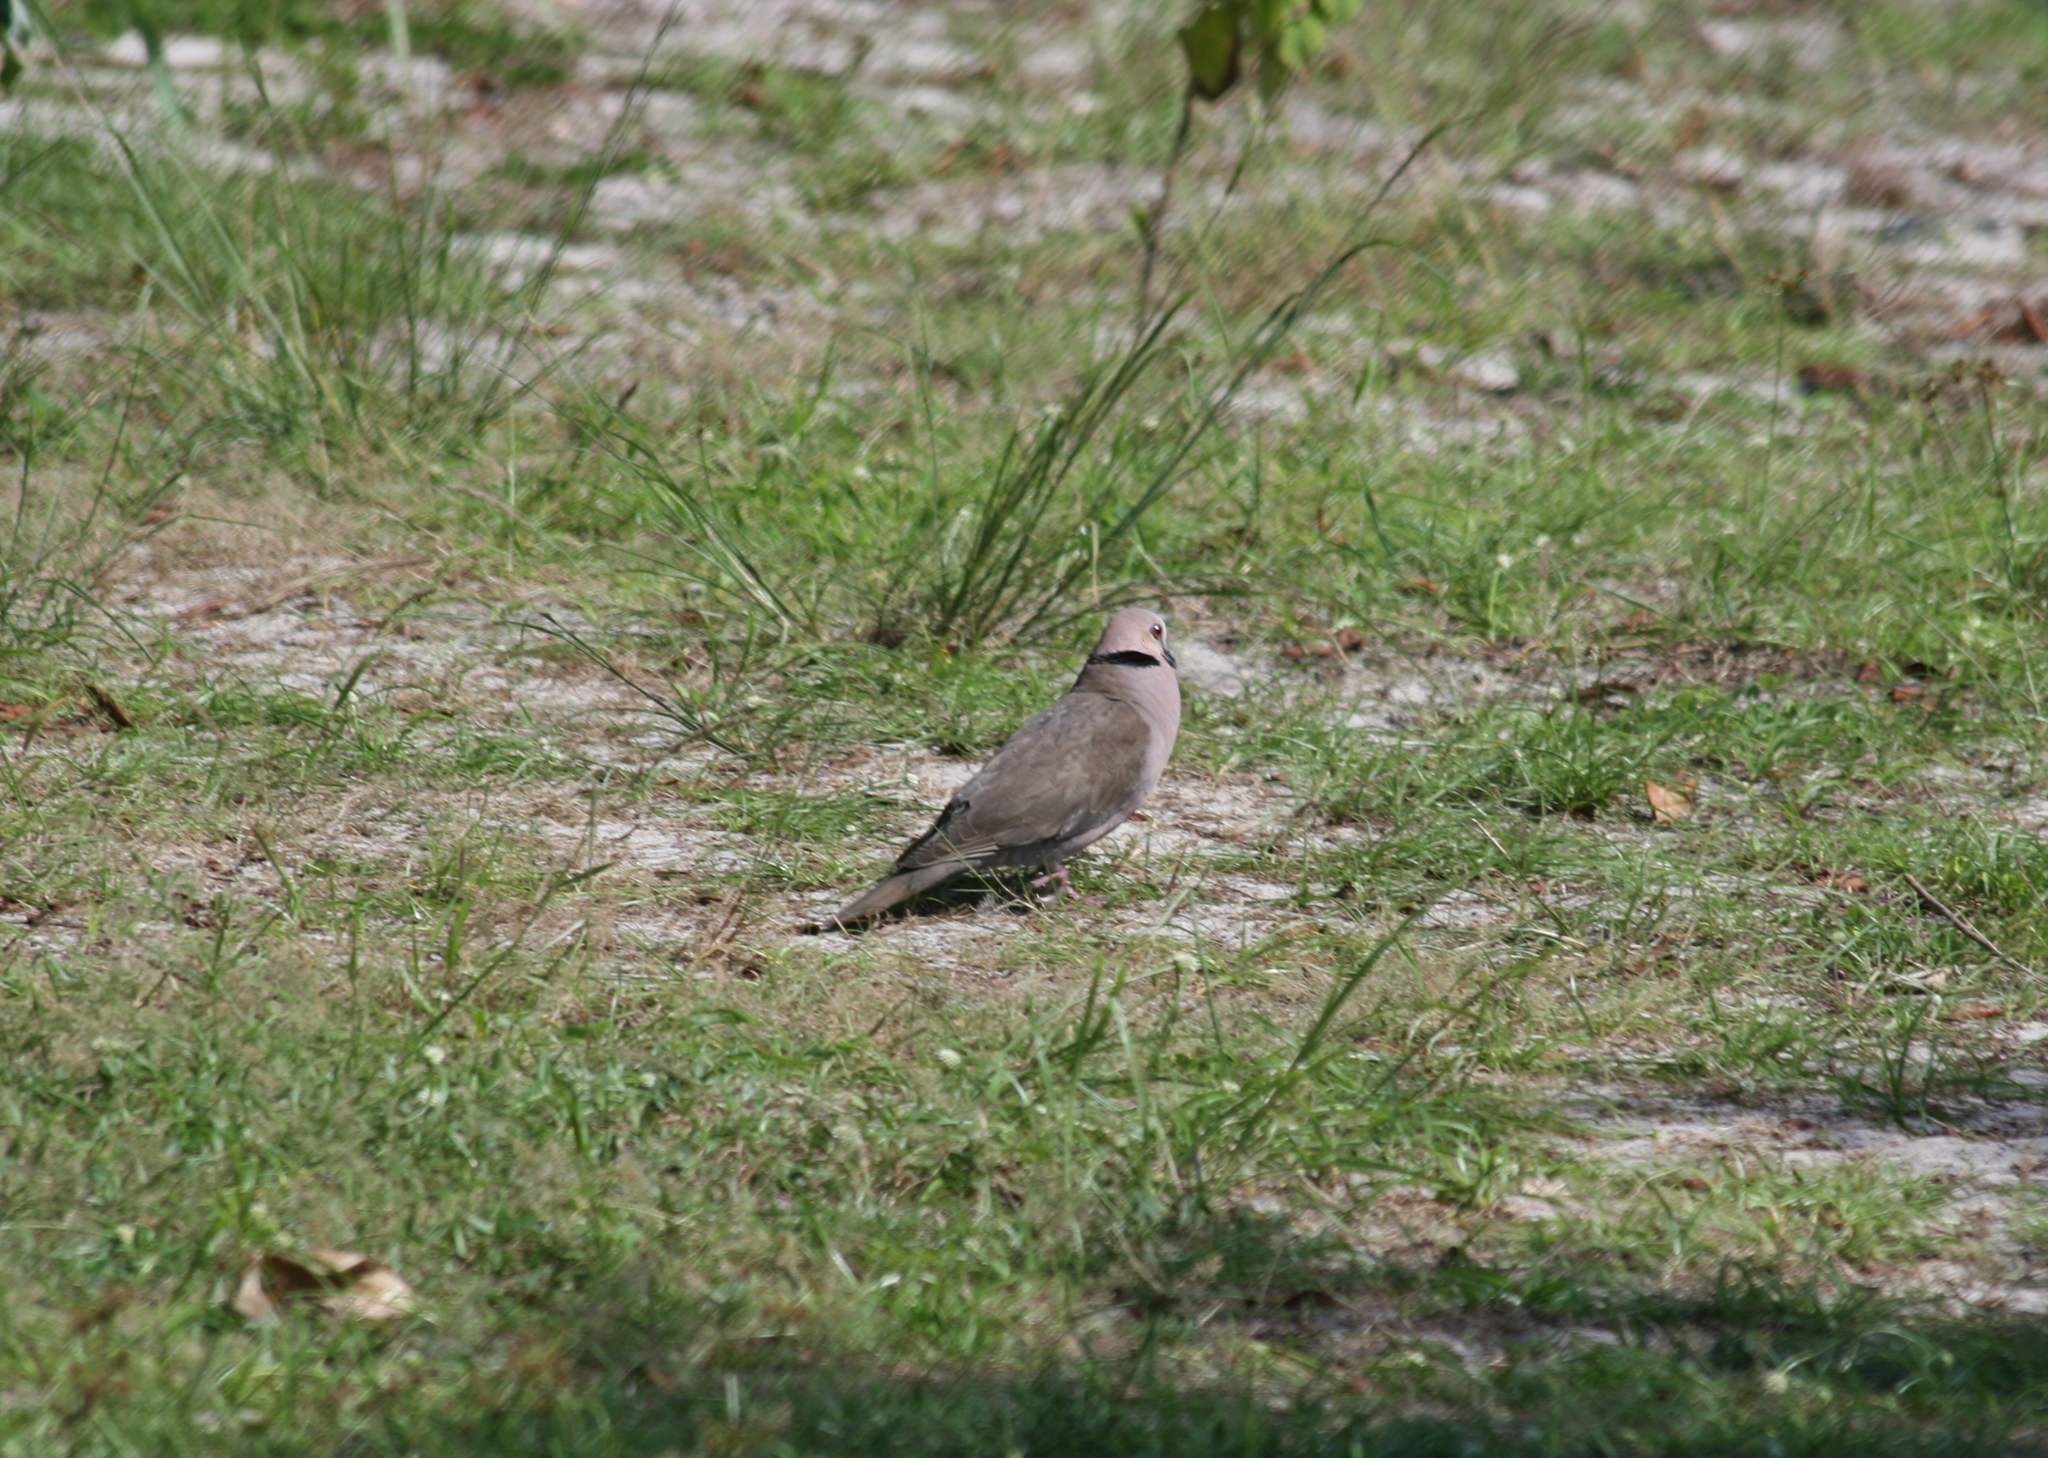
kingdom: Animalia
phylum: Chordata
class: Aves
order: Columbiformes
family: Columbidae
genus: Streptopelia
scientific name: Streptopelia semitorquata
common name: Red-eyed dove
